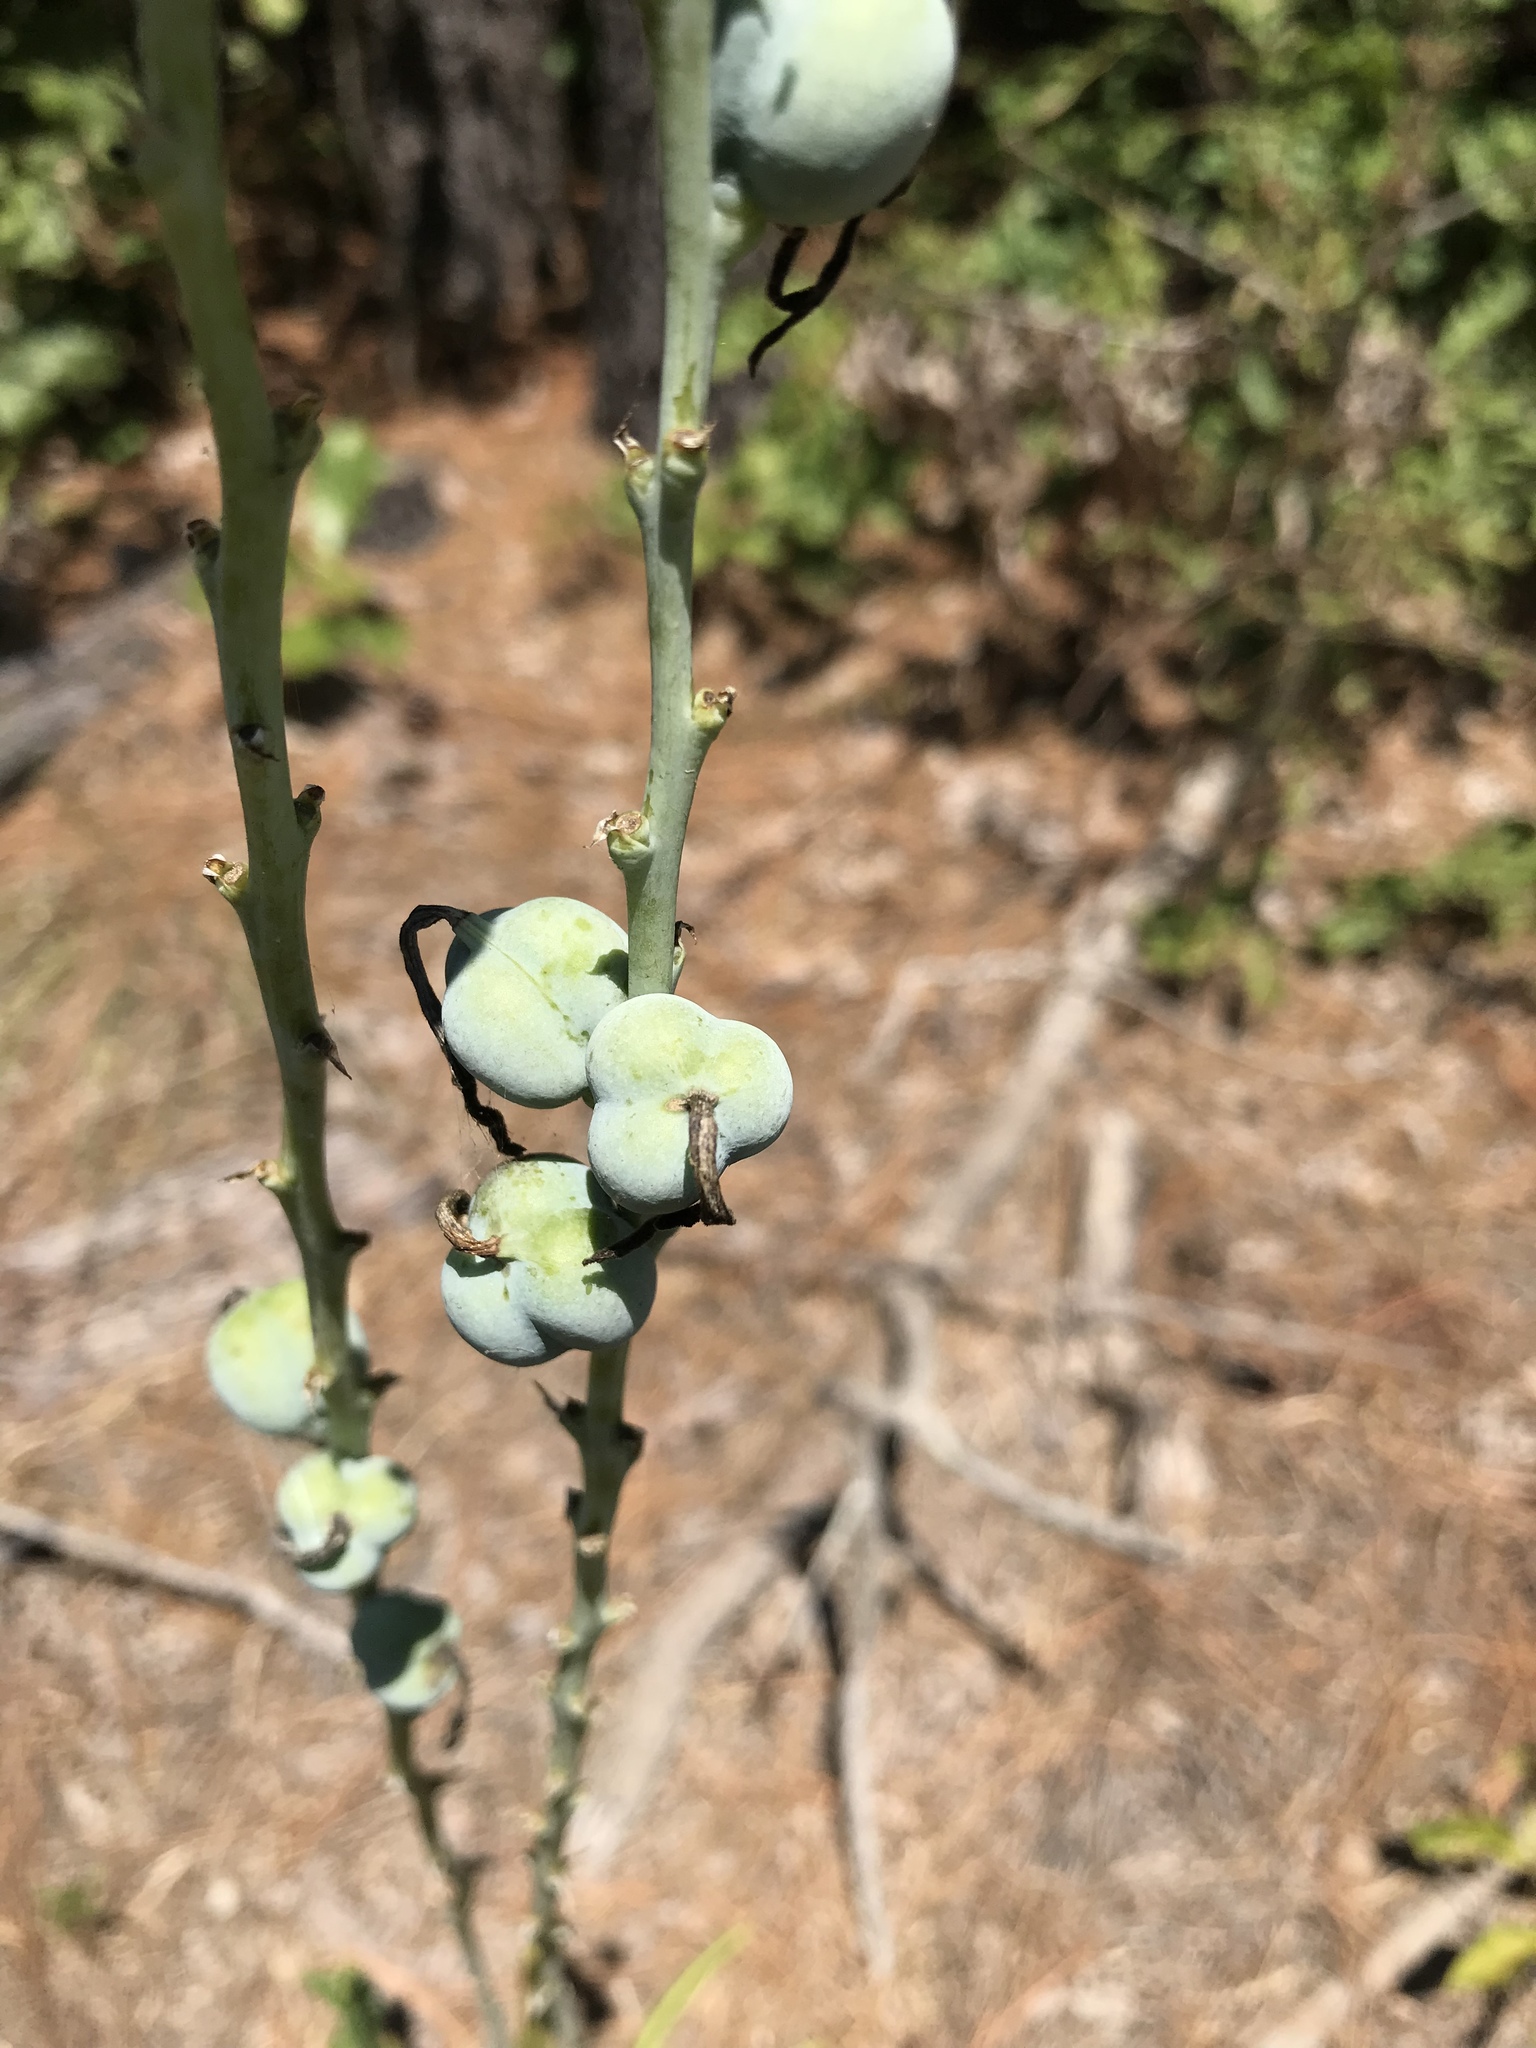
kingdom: Plantae
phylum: Tracheophyta
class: Liliopsida
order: Asparagales
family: Asparagaceae
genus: Agave
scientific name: Agave virginica
